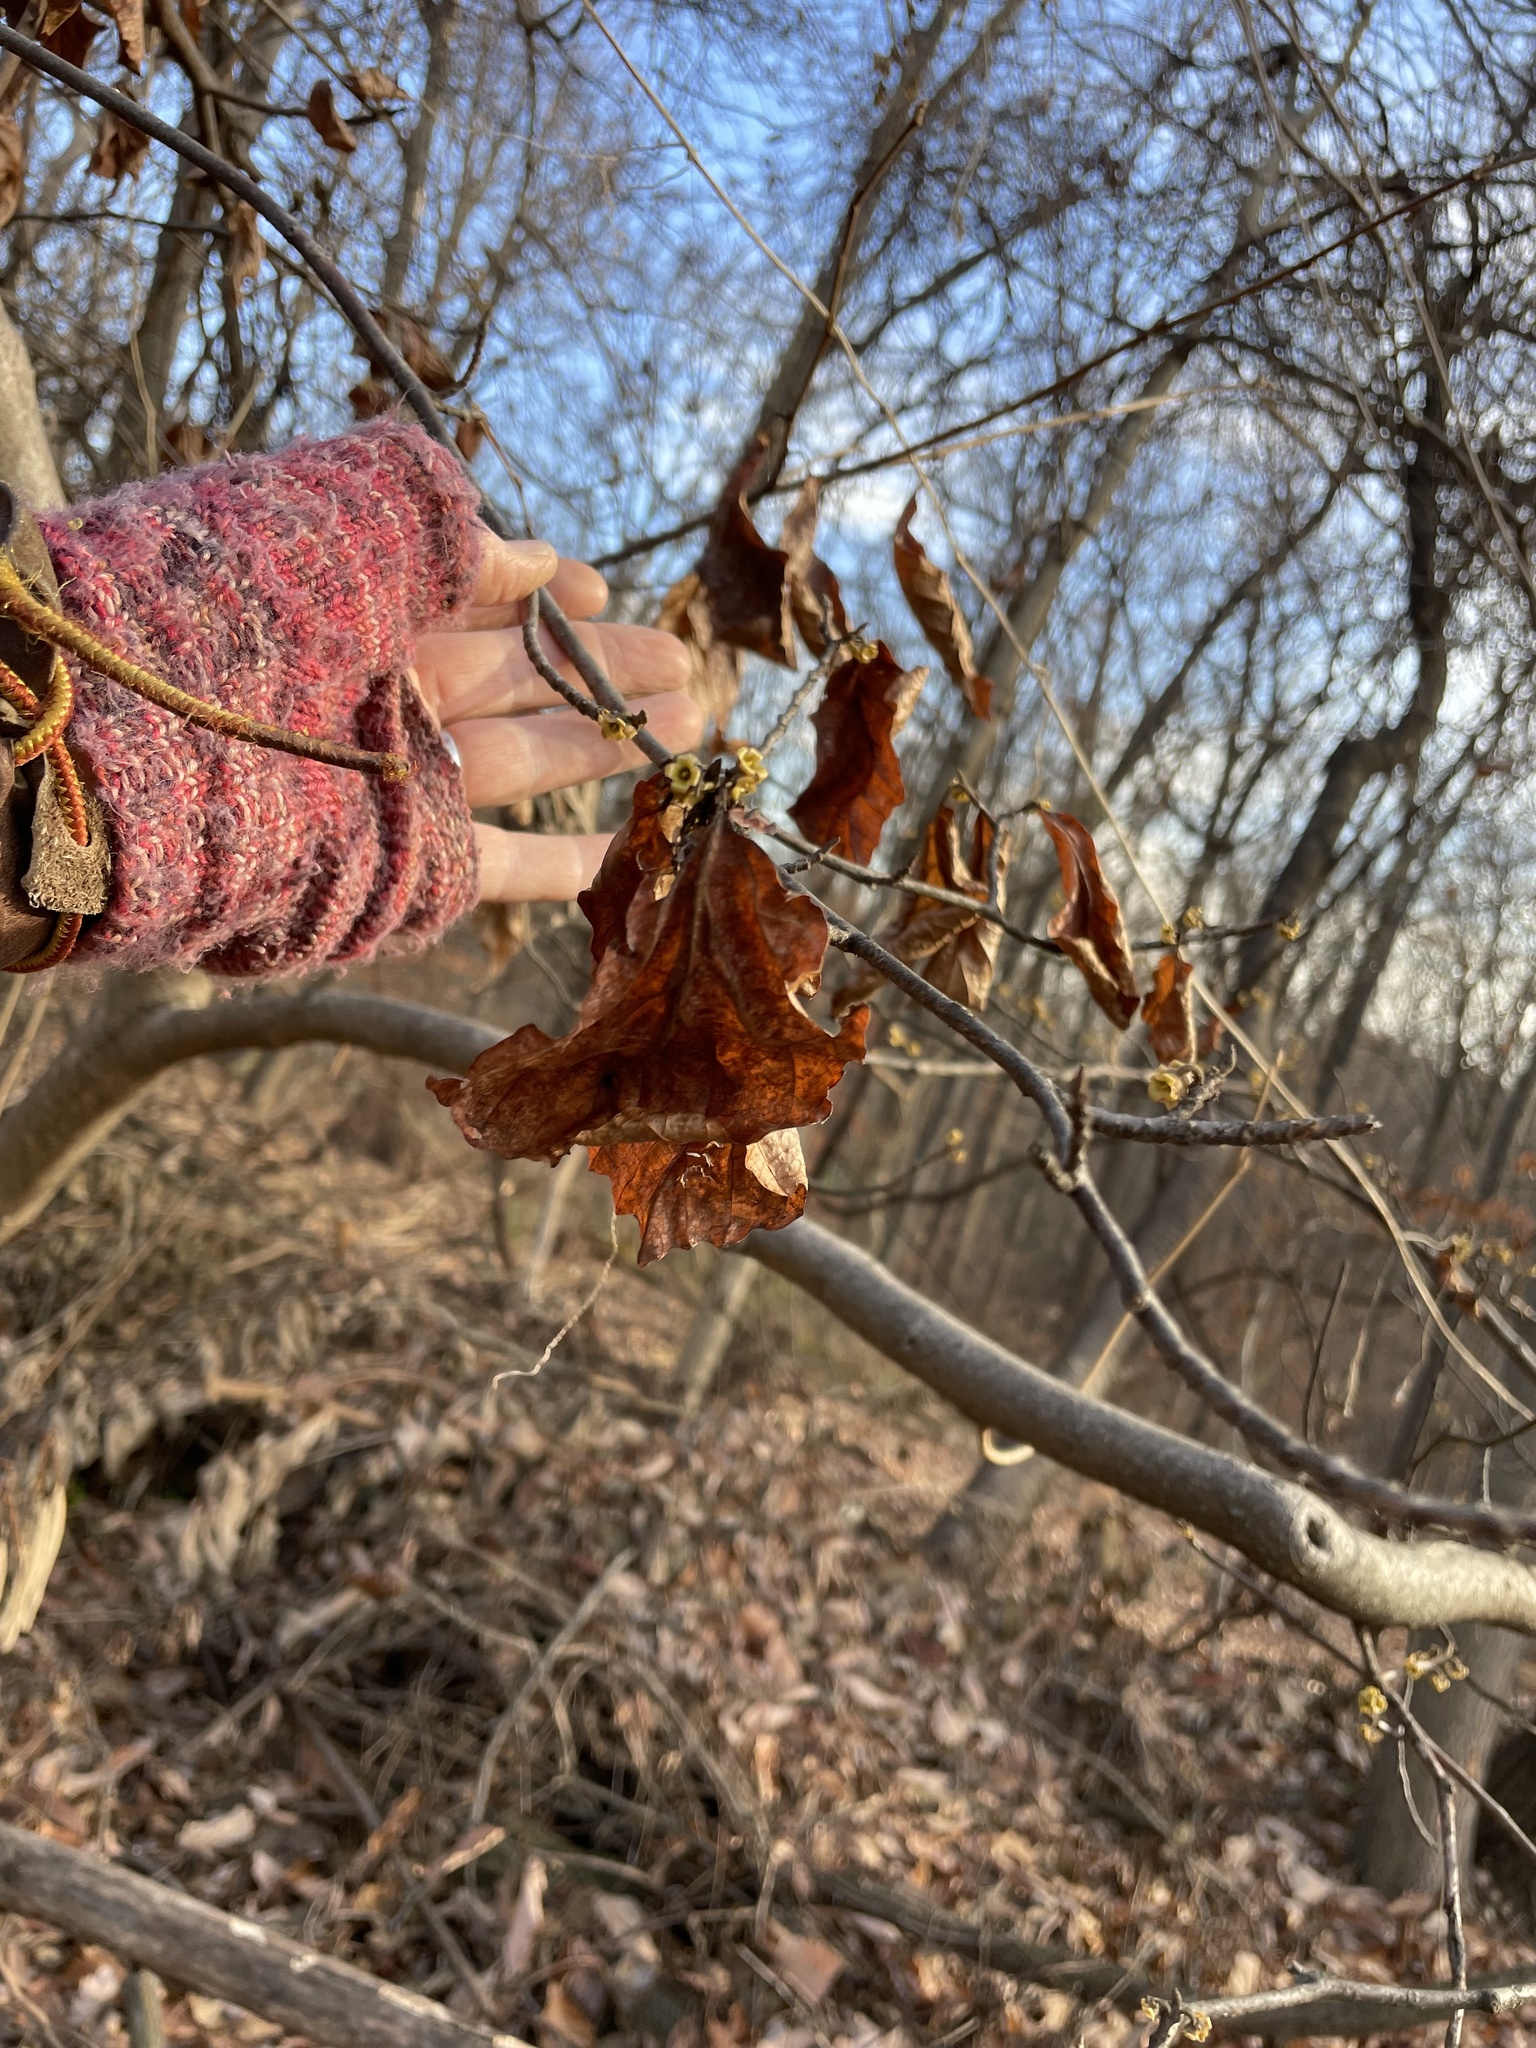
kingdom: Plantae
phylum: Tracheophyta
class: Magnoliopsida
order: Saxifragales
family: Hamamelidaceae
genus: Hamamelis
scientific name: Hamamelis virginiana
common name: Witch-hazel
